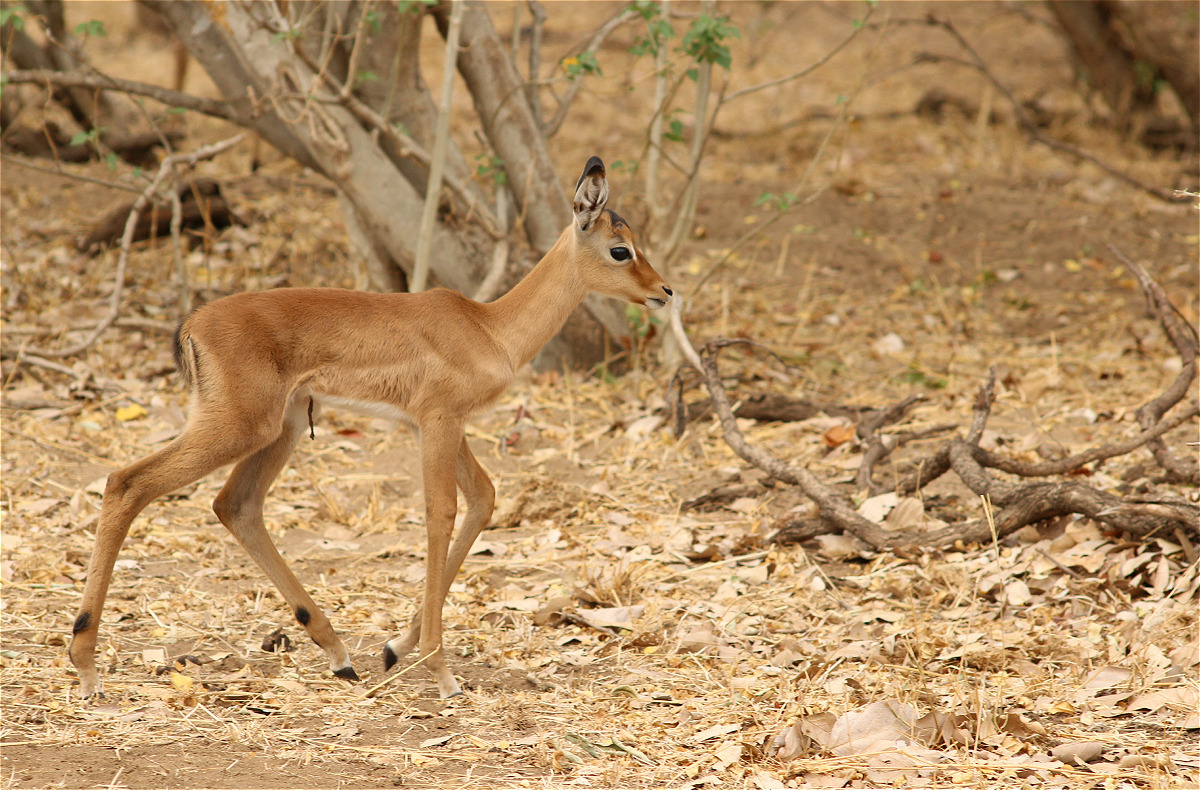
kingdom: Animalia
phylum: Chordata
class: Mammalia
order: Artiodactyla
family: Bovidae
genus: Aepyceros
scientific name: Aepyceros melampus
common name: Impala
